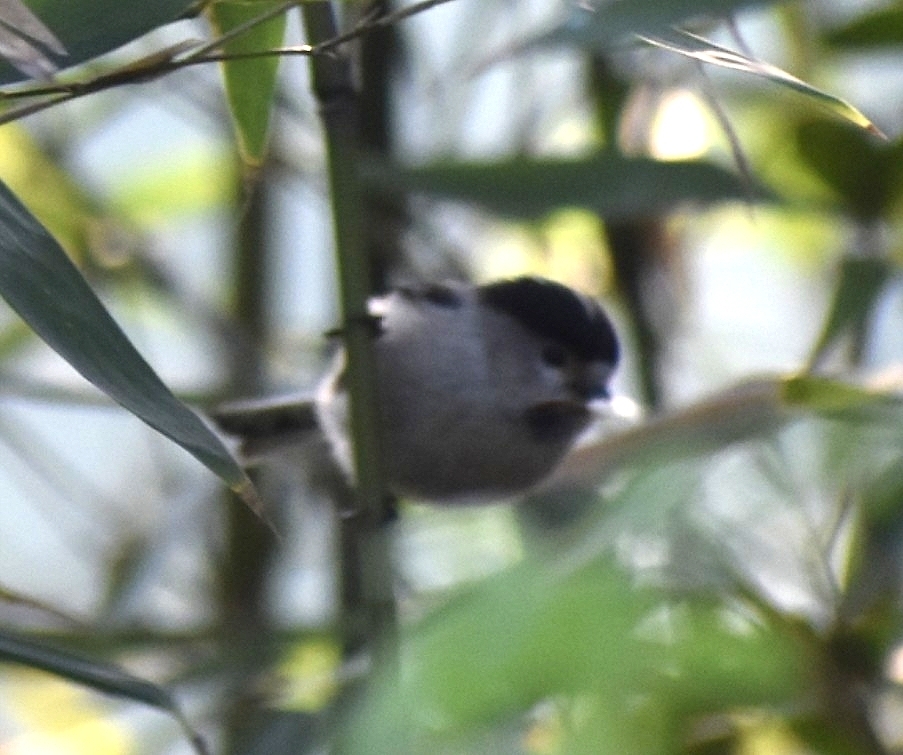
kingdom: Animalia
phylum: Chordata
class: Aves
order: Passeriformes
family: Aegithalidae
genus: Aegithalos
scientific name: Aegithalos glaucogularis
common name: Silver-throated bushtit
